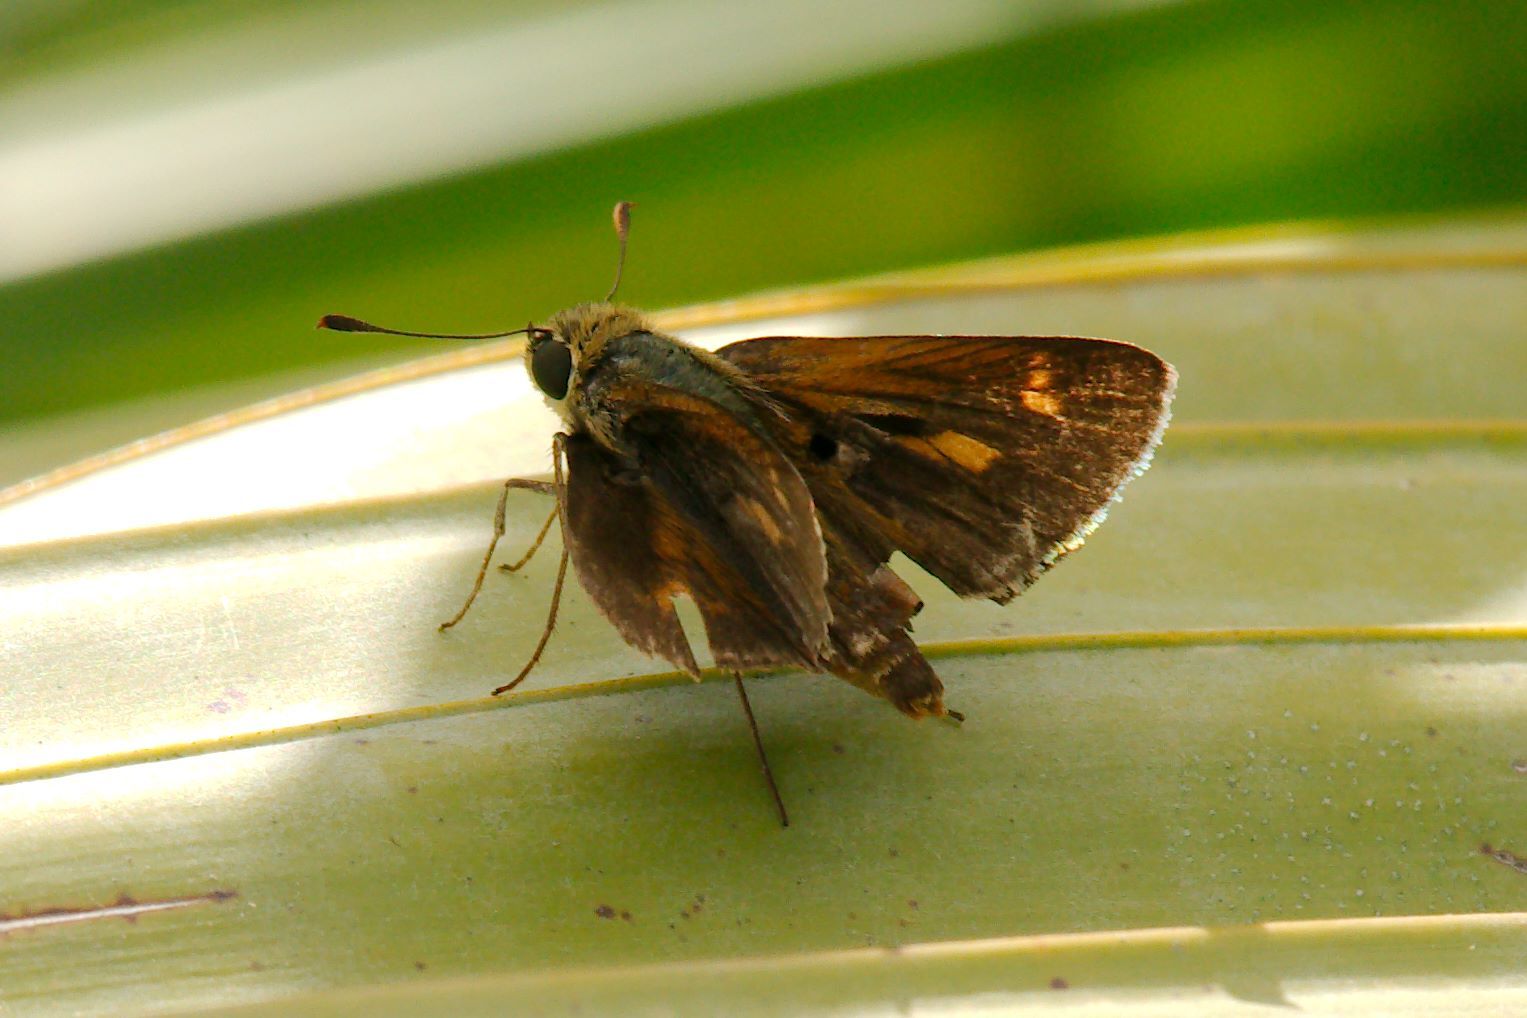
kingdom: Animalia
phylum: Arthropoda
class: Insecta
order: Lepidoptera
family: Hesperiidae
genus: Polites
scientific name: Polites baracoa
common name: Baracoa skipper
